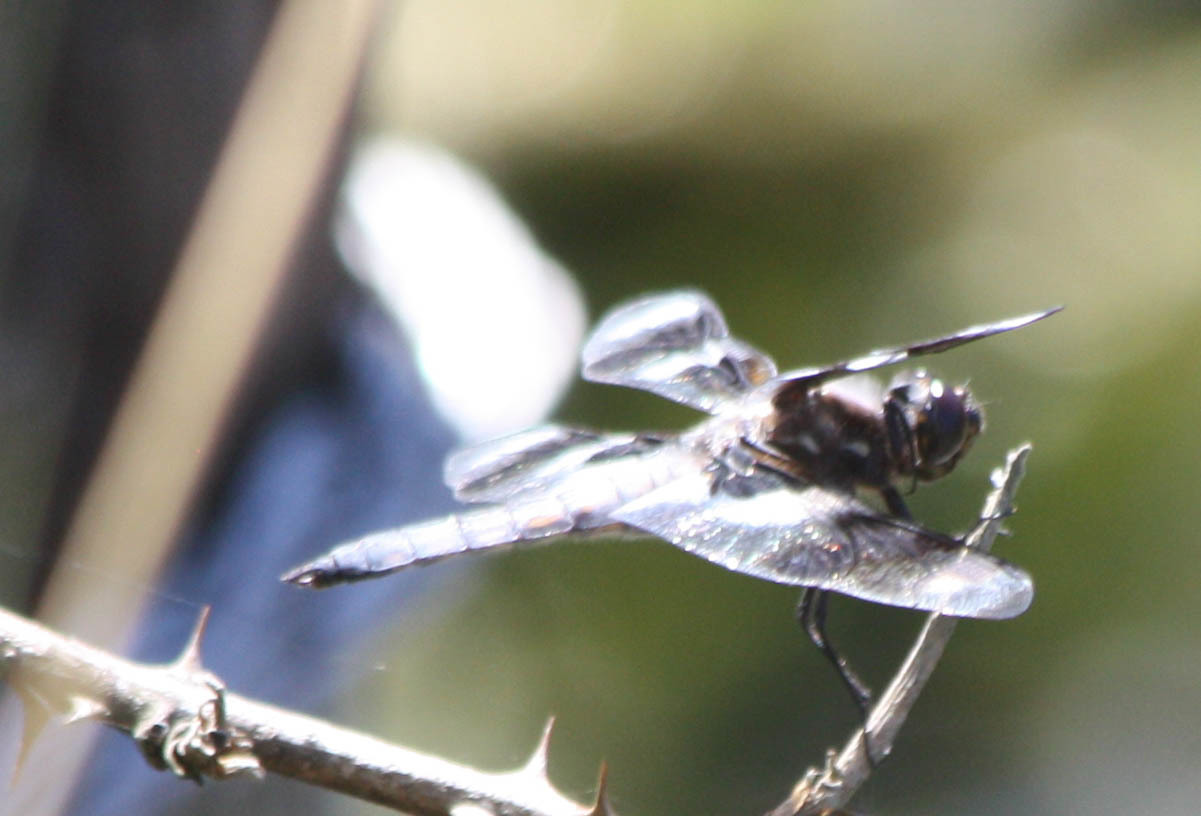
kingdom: Animalia
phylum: Arthropoda
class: Insecta
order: Odonata
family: Libellulidae
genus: Libellula
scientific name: Libellula forensis
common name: Eight-spotted skimmer
